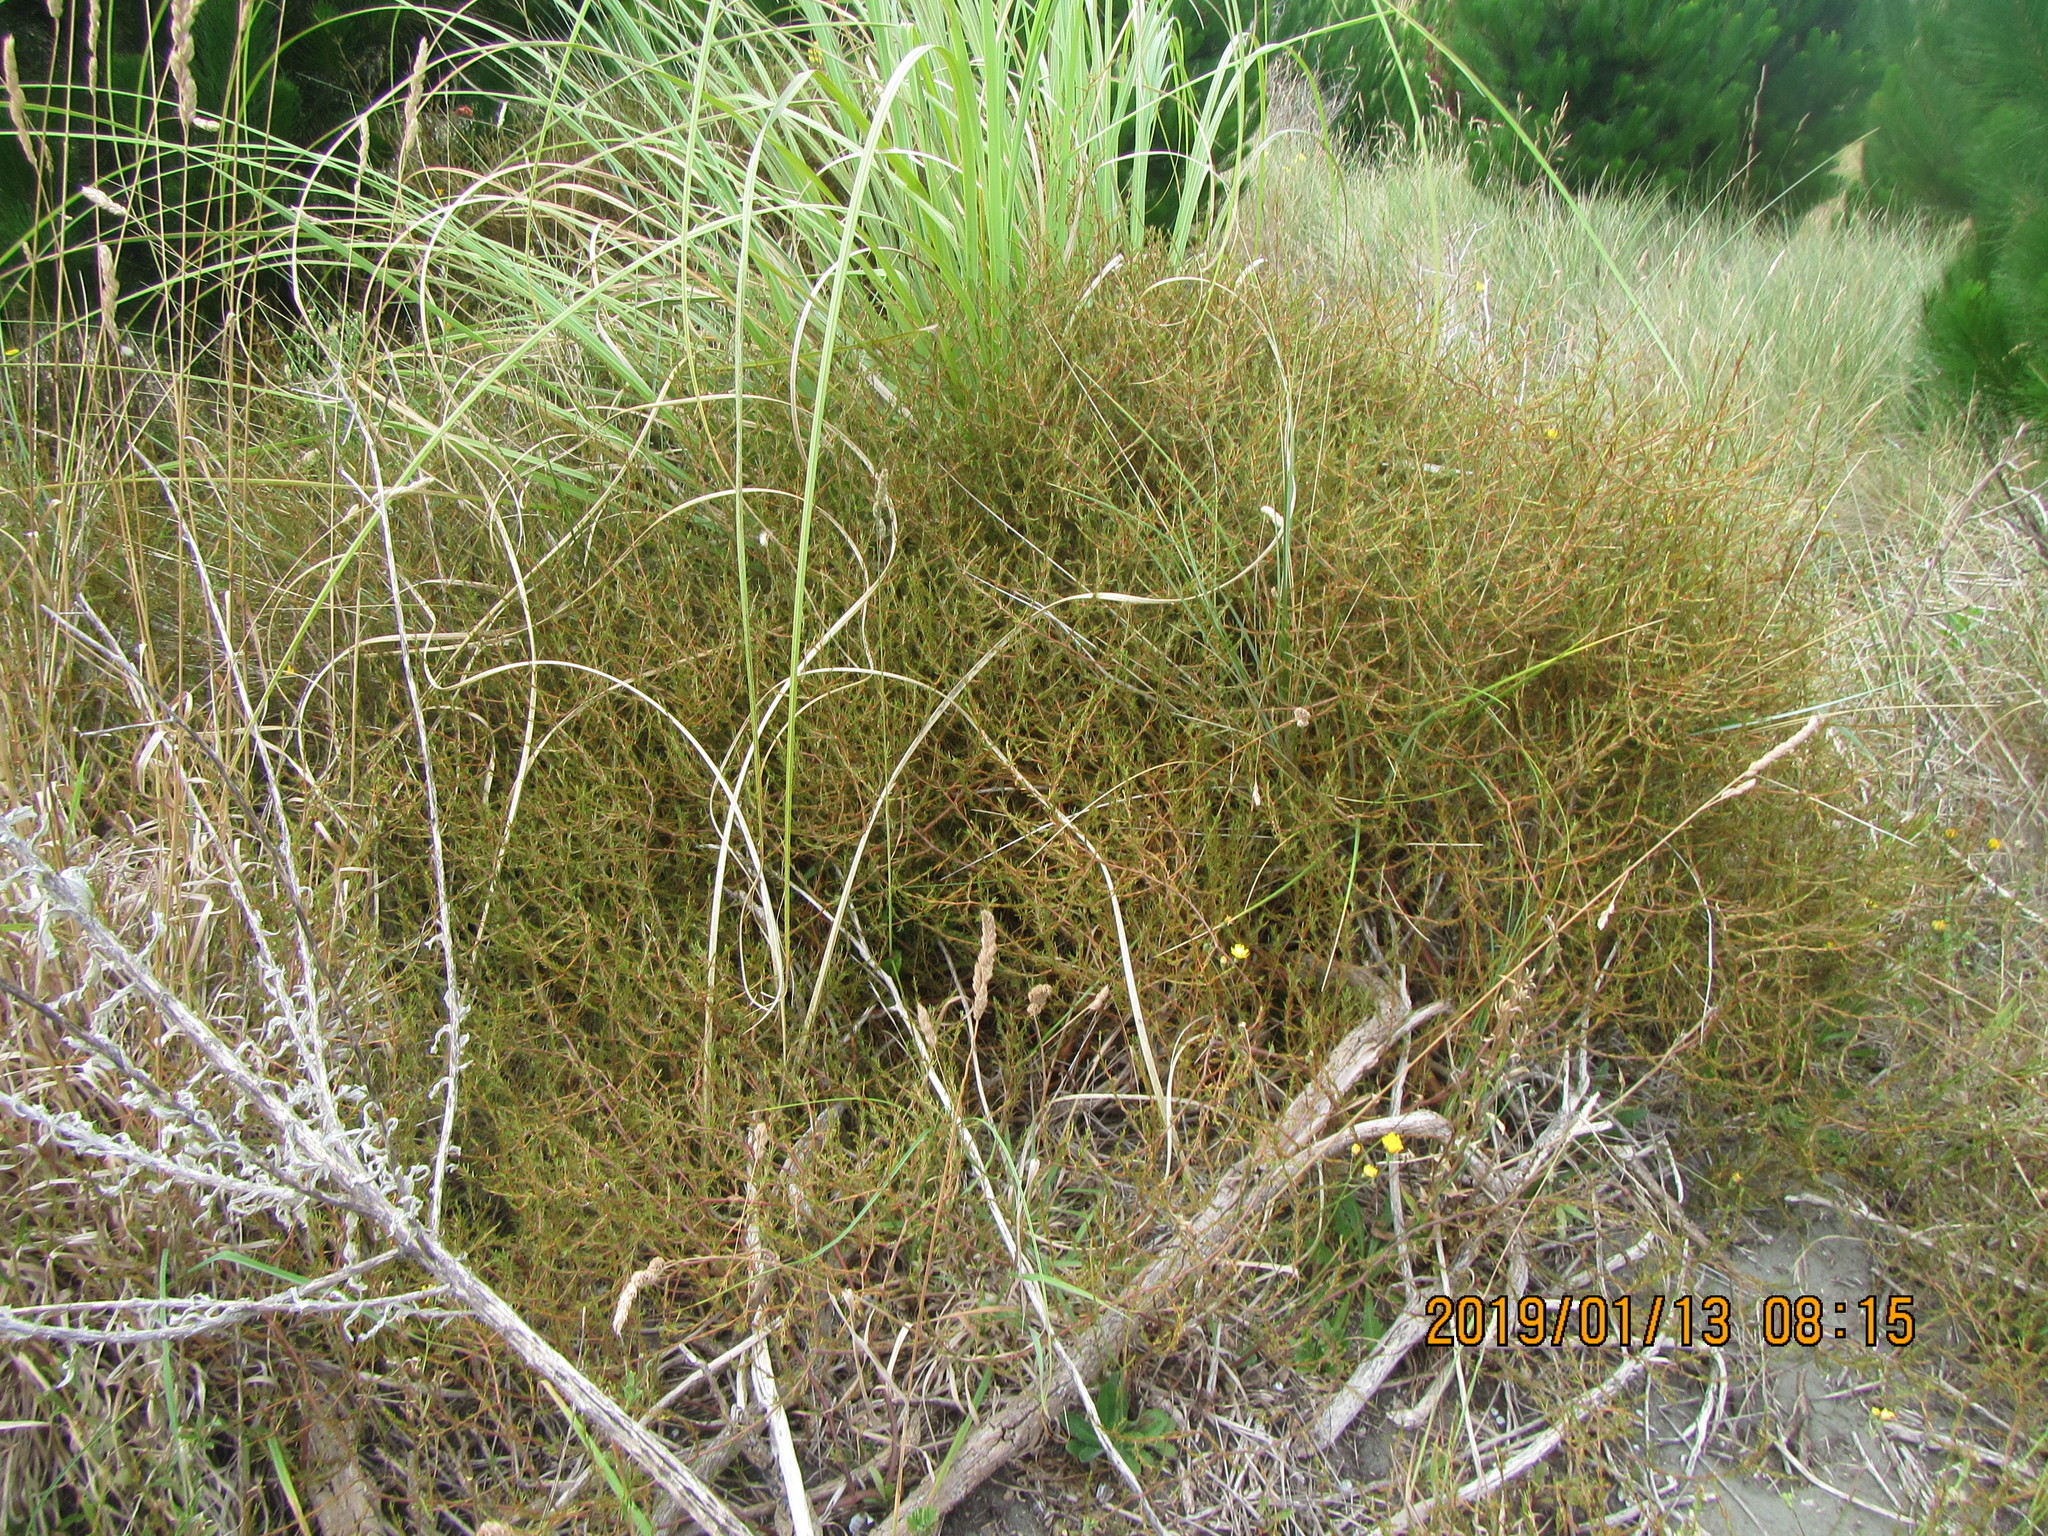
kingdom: Plantae
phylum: Tracheophyta
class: Magnoliopsida
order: Gentianales
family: Rubiaceae
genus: Coprosma
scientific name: Coprosma acerosa
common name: Sand coprosma
